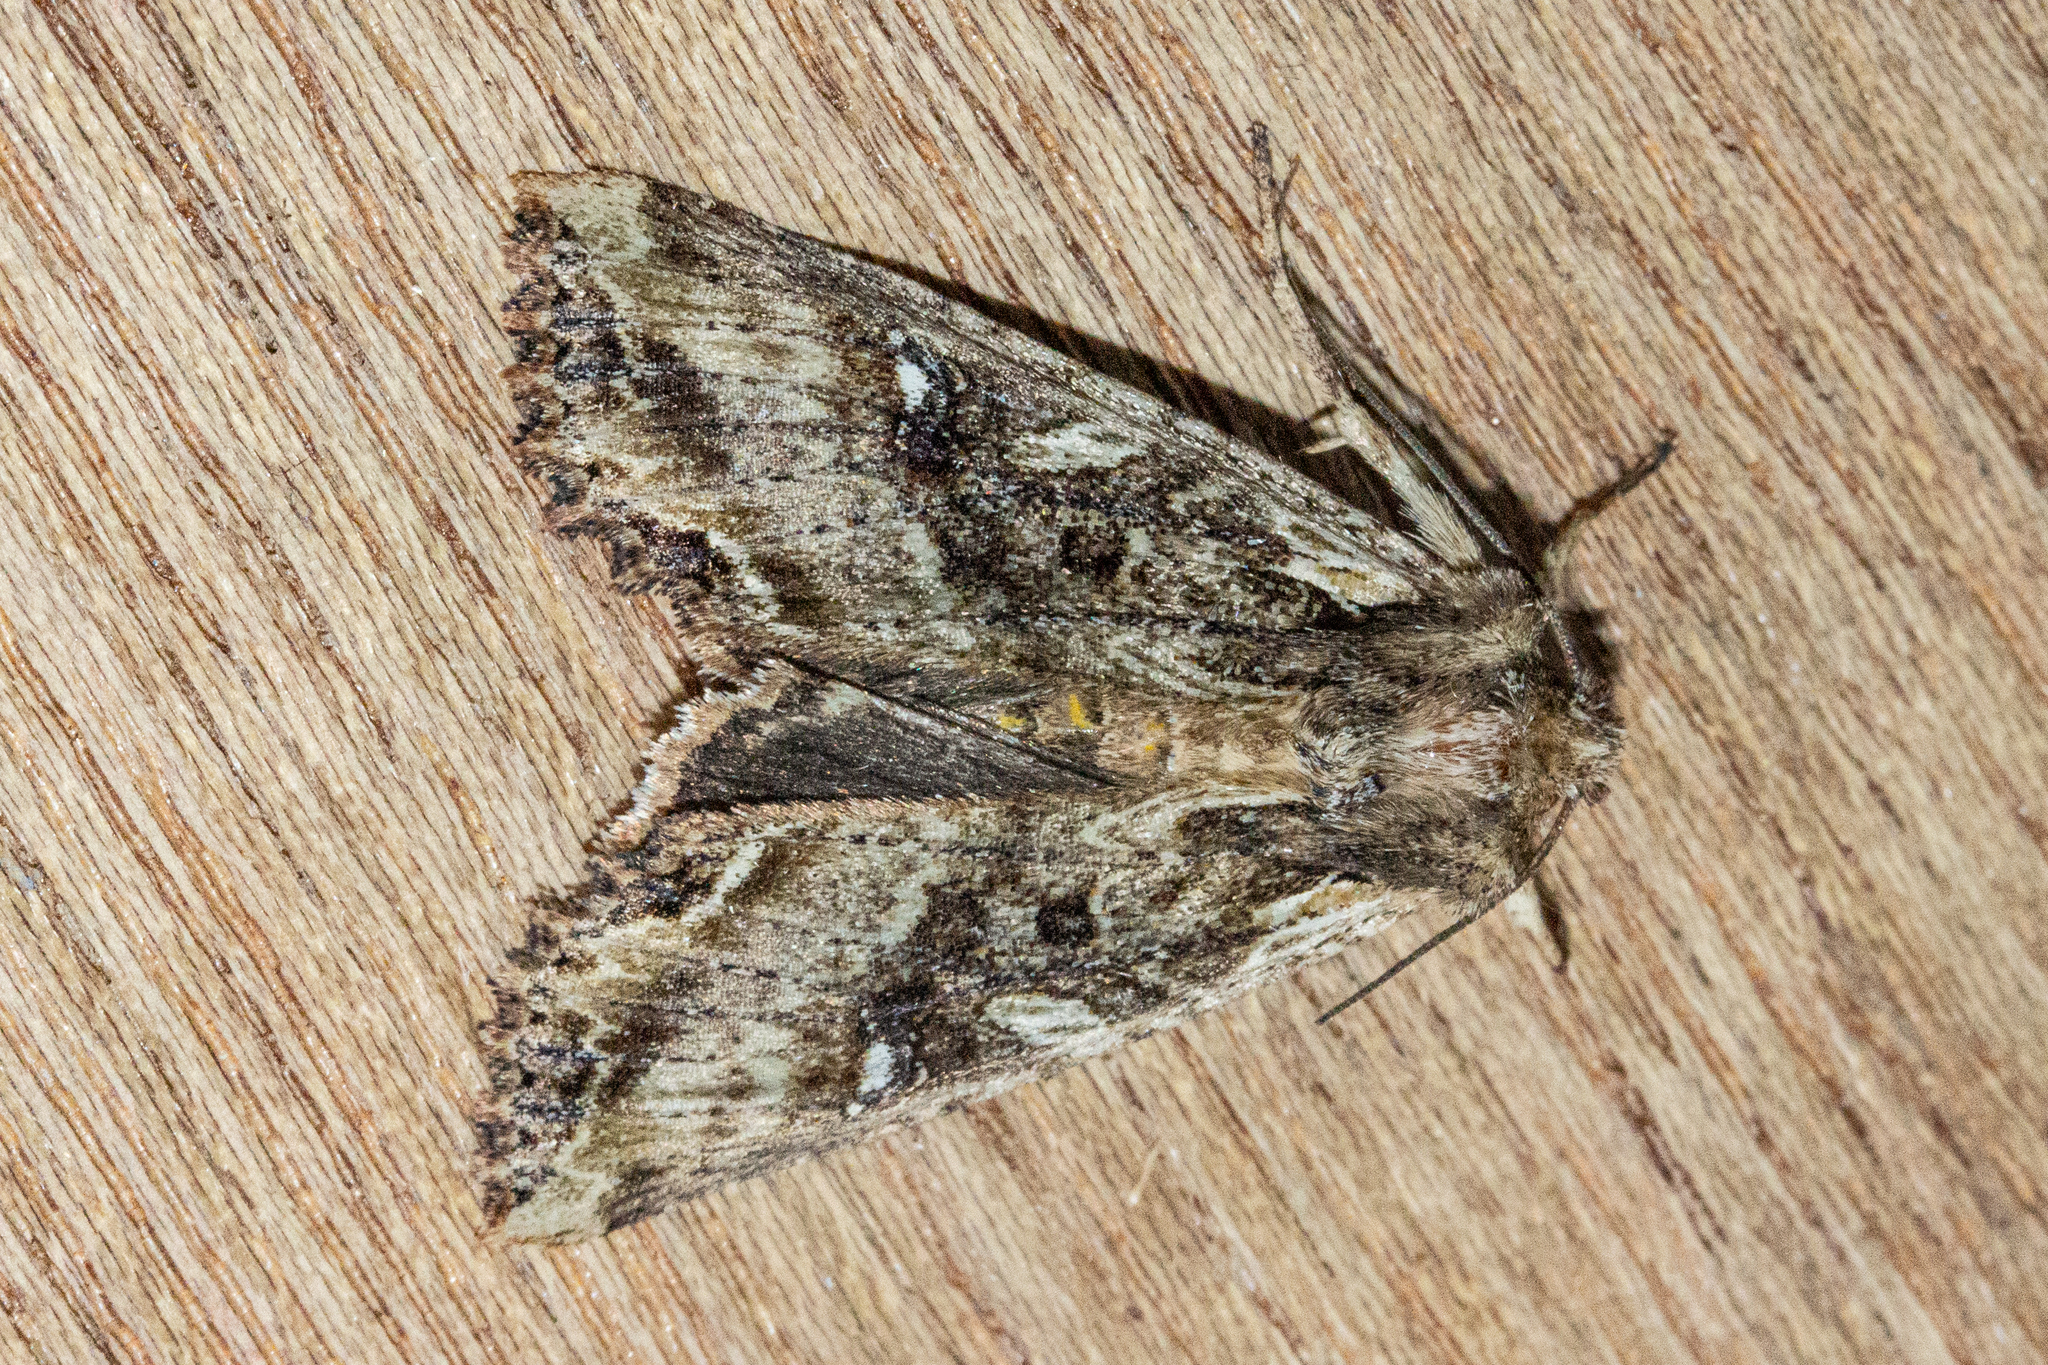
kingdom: Animalia
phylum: Arthropoda
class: Insecta
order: Lepidoptera
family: Noctuidae
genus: Meterana
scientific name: Meterana stipata
